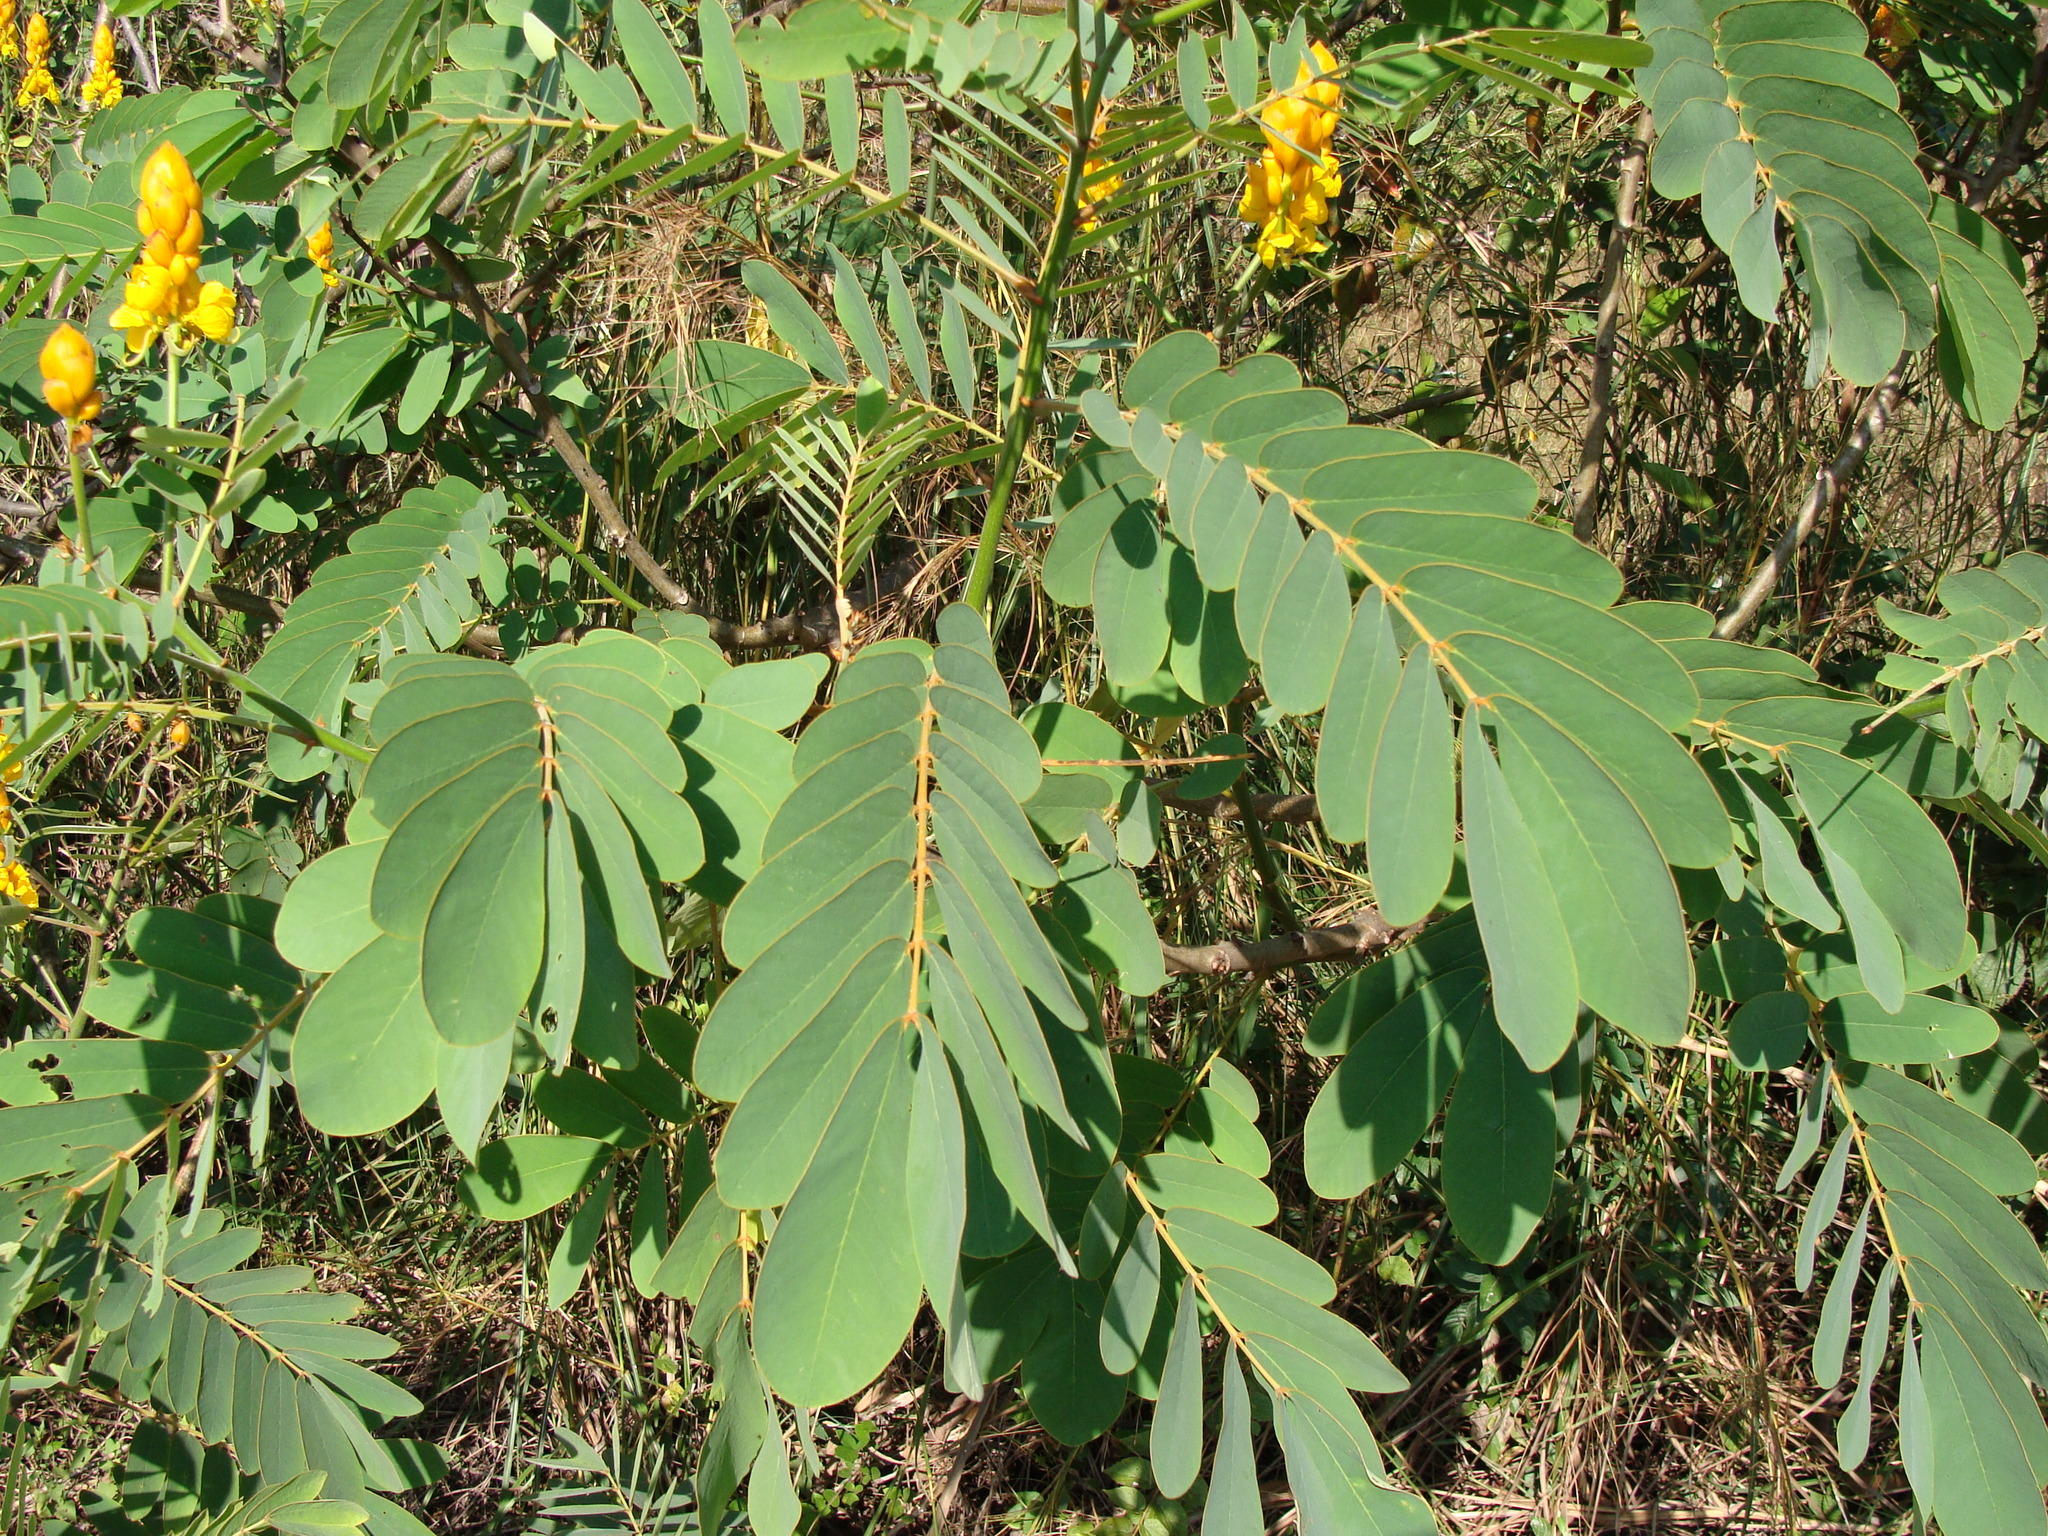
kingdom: Plantae
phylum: Tracheophyta
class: Magnoliopsida
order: Fabales
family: Fabaceae
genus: Senna
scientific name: Senna reticulata
